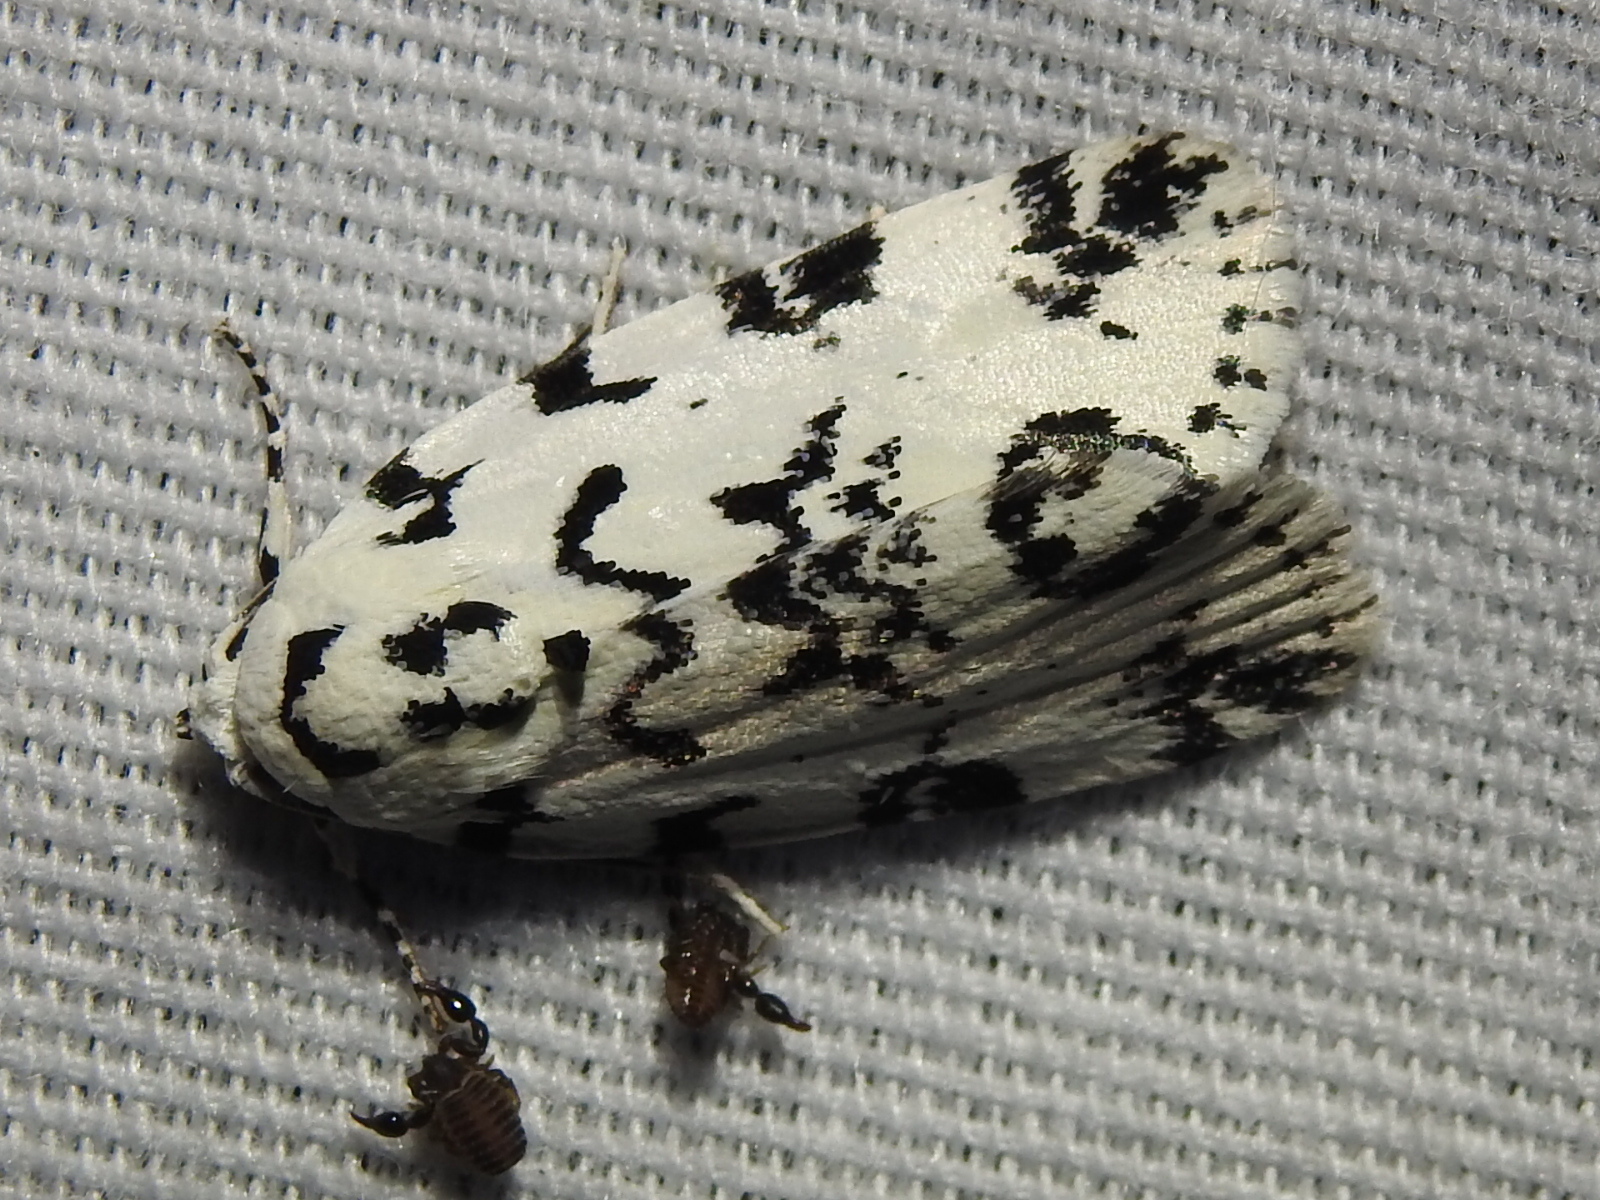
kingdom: Animalia
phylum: Arthropoda
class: Insecta
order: Lepidoptera
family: Noctuidae
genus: Polygrammate
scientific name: Polygrammate hebraeicum
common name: Hebrew moth
